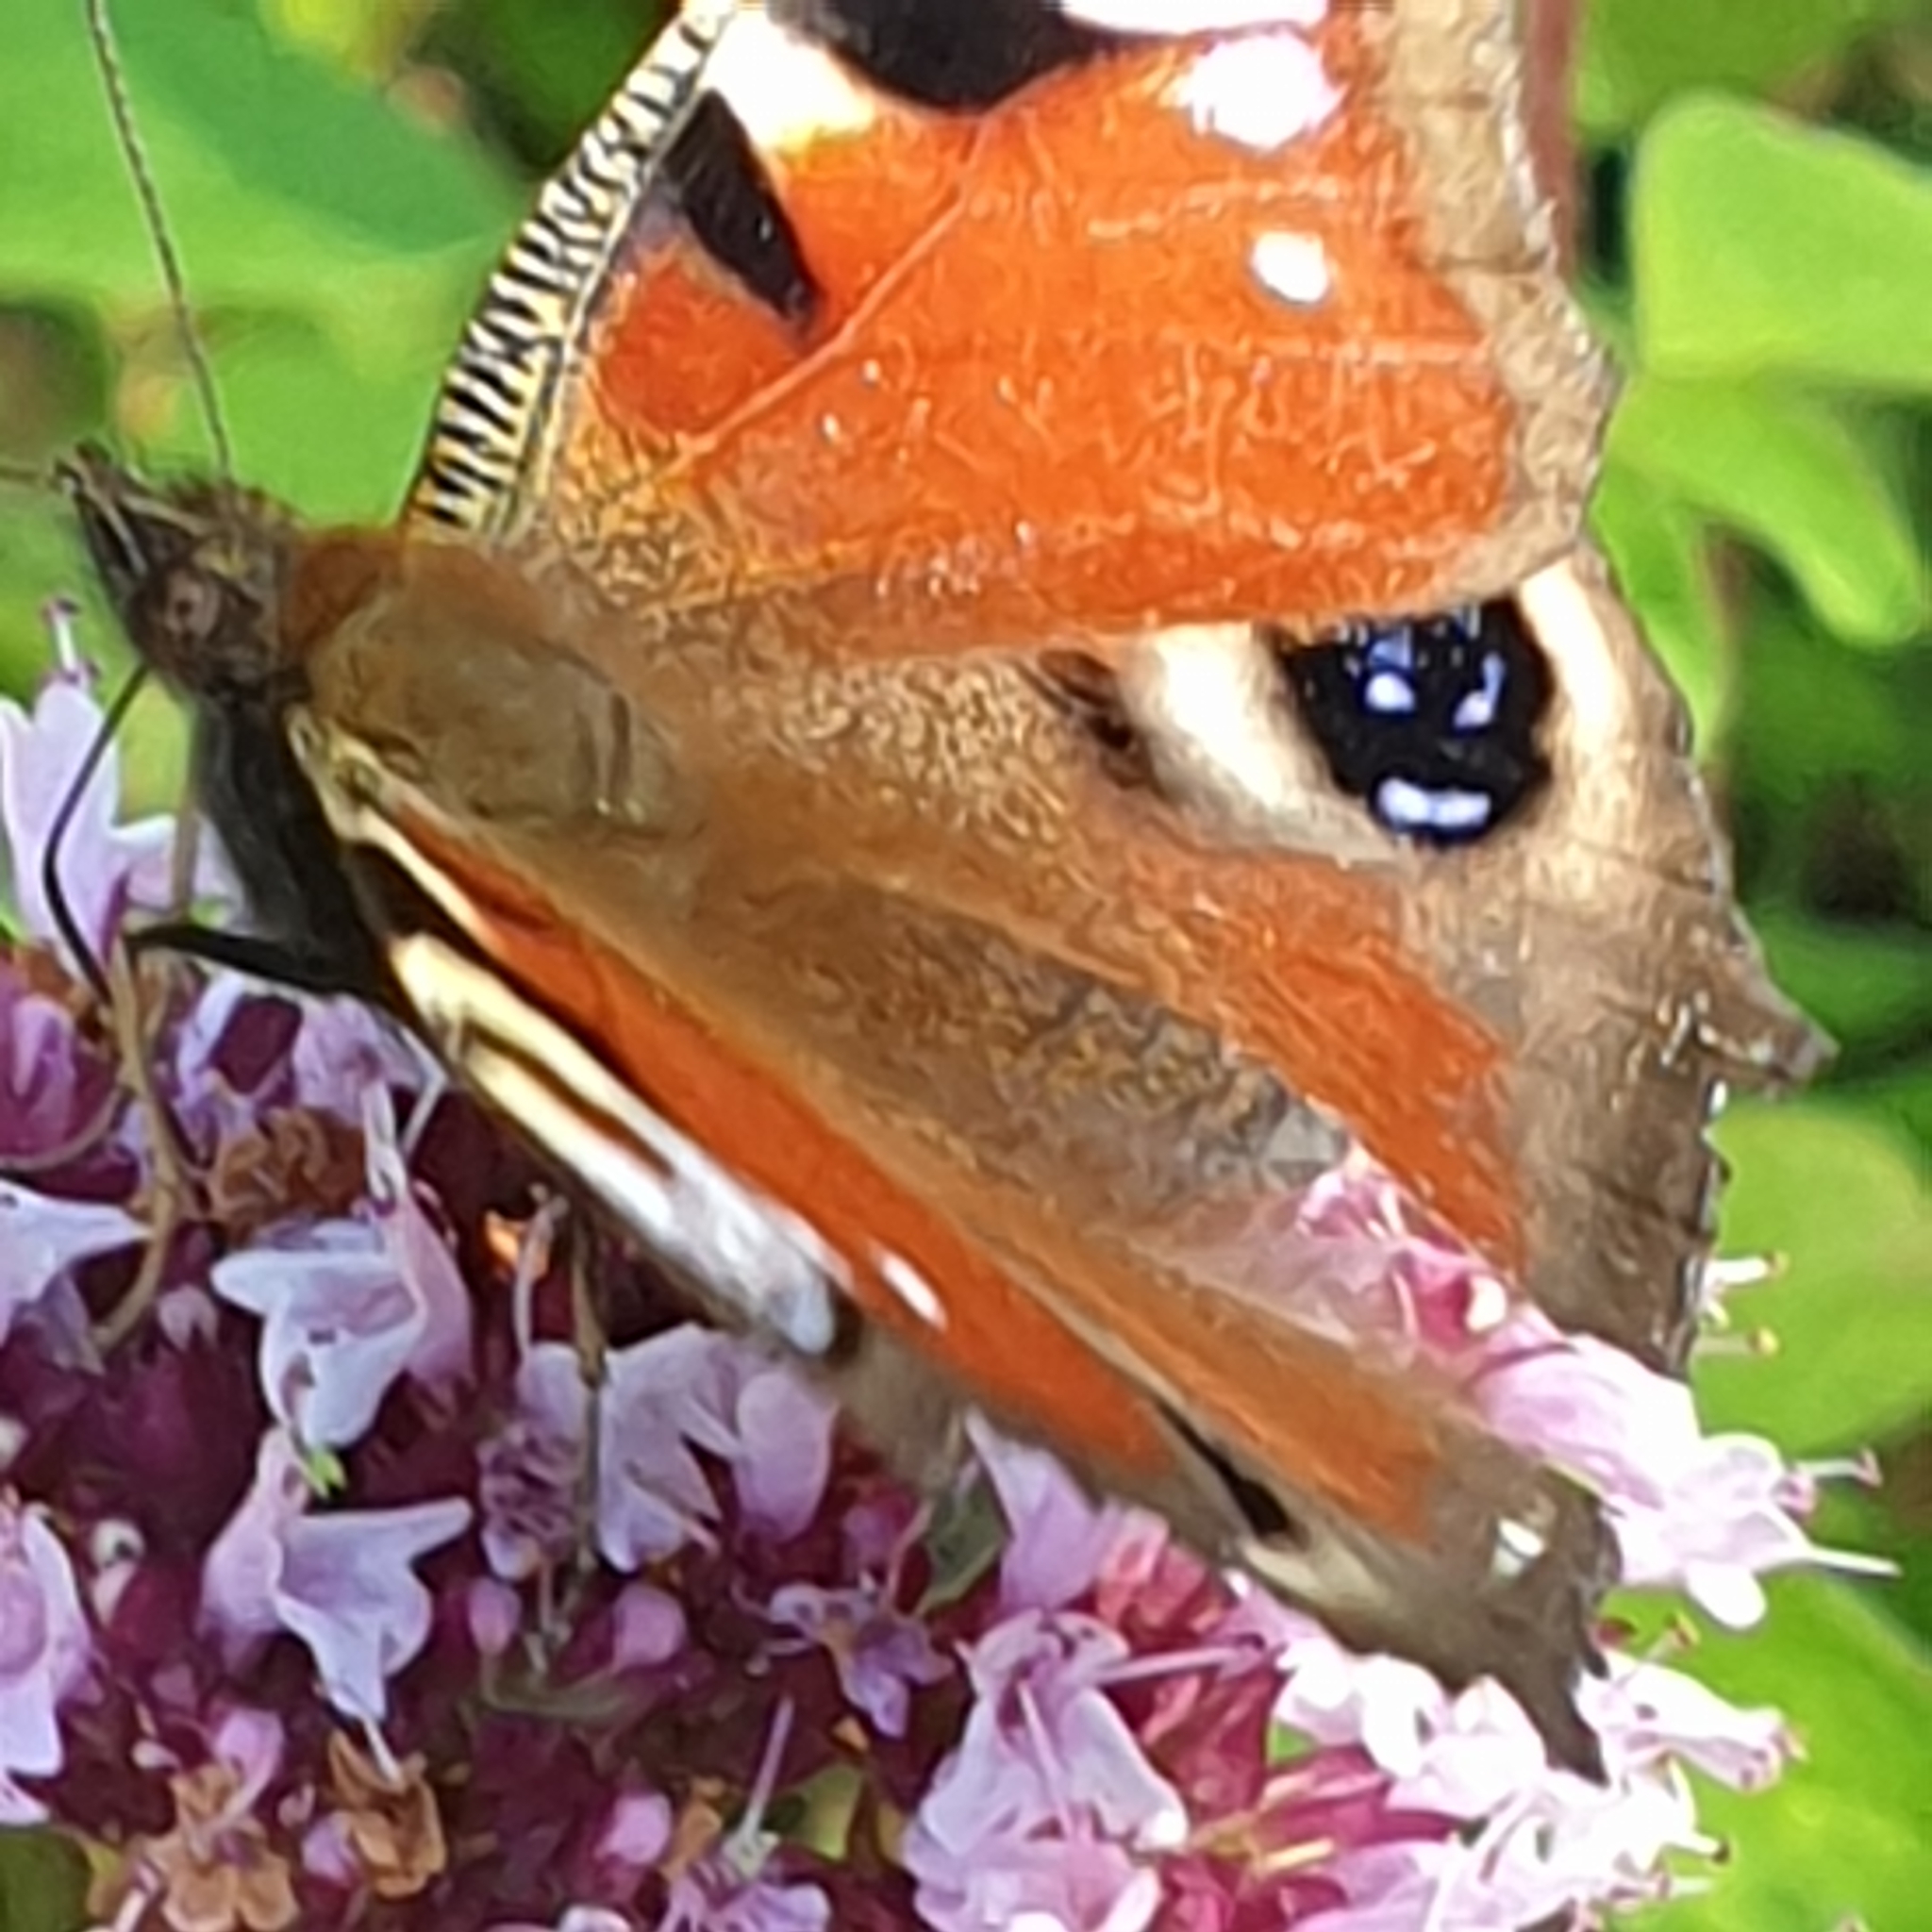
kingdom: Animalia
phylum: Arthropoda
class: Insecta
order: Lepidoptera
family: Nymphalidae
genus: Aglais
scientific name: Aglais io
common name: Peacock
